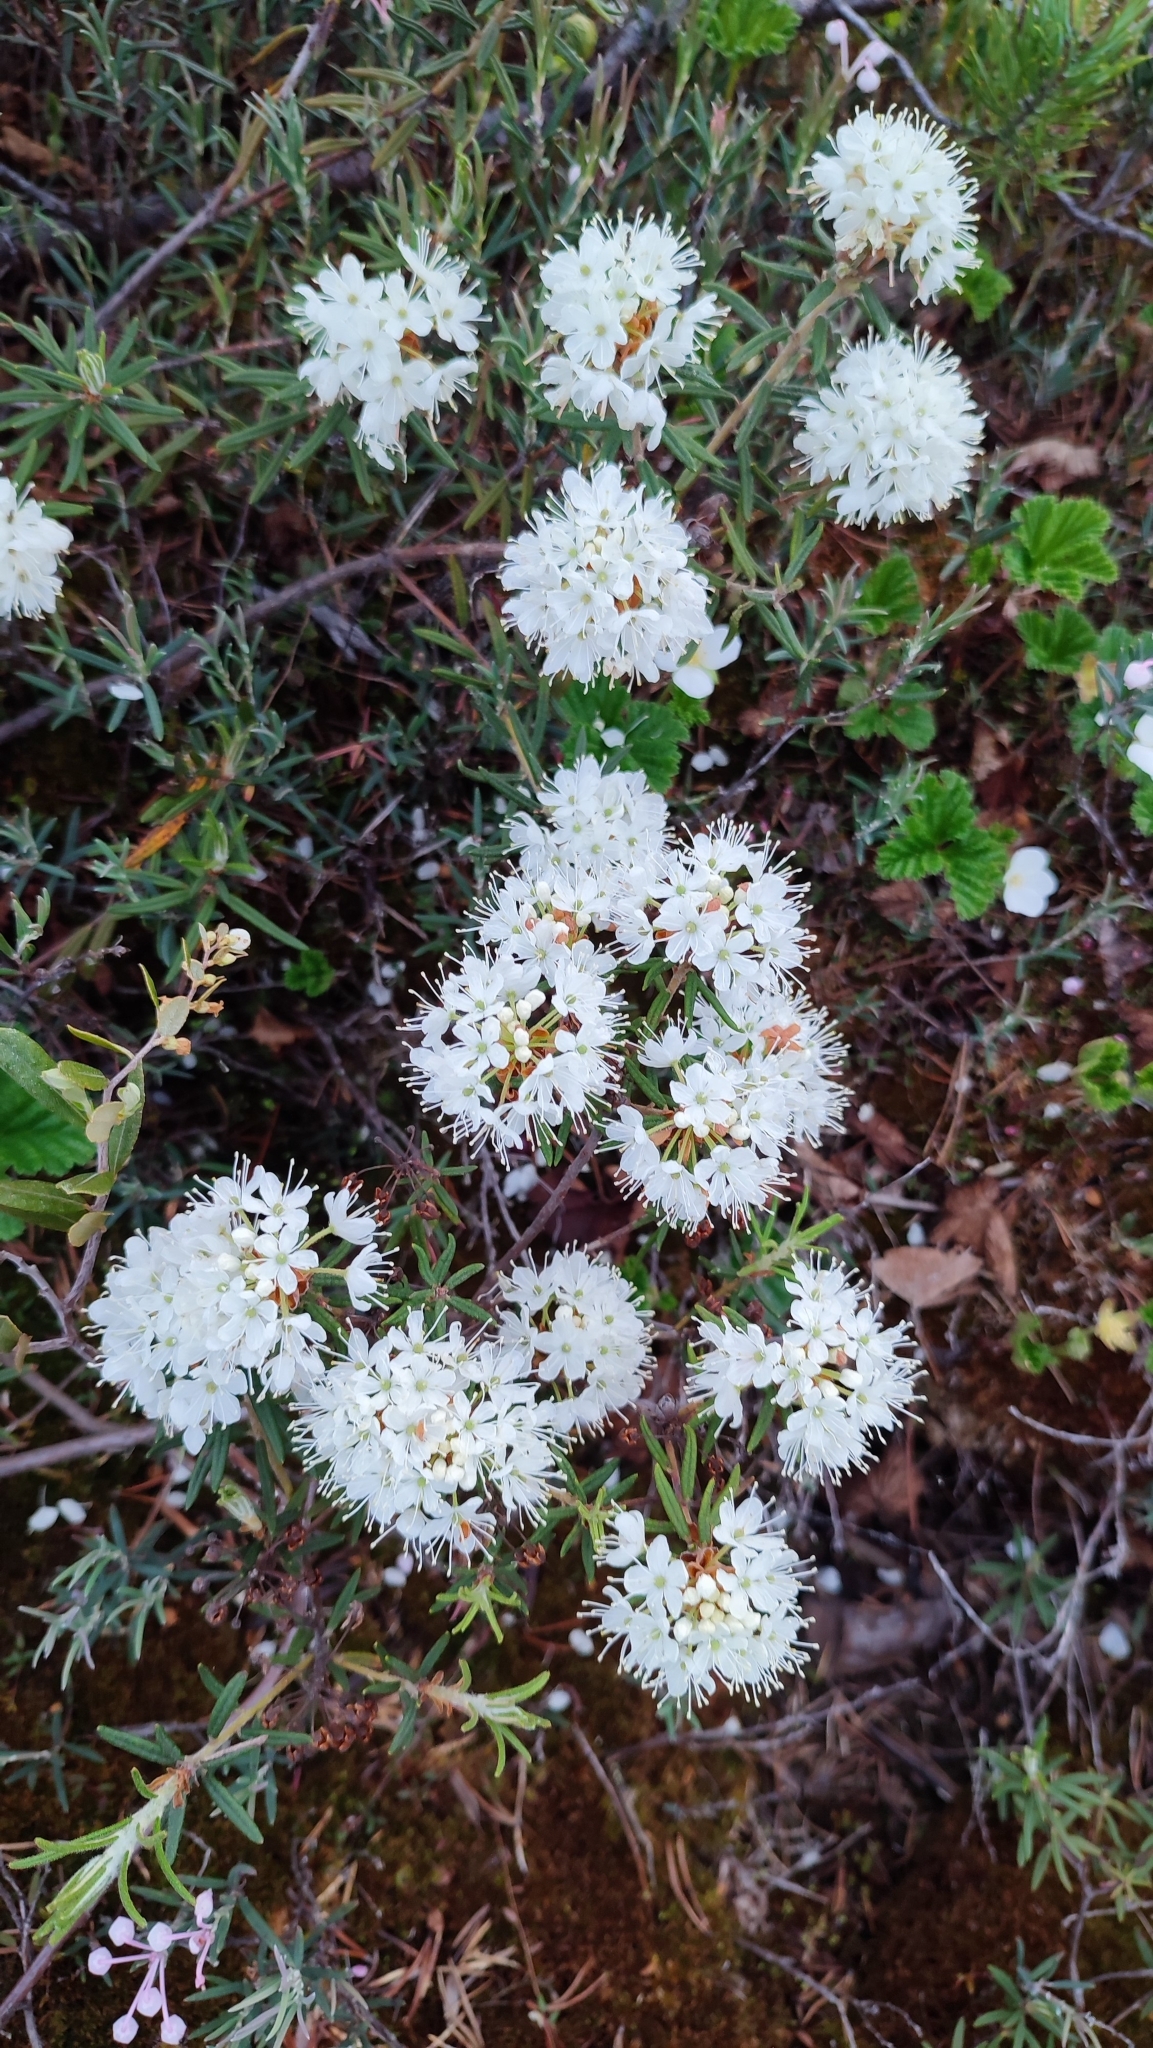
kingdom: Plantae
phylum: Tracheophyta
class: Magnoliopsida
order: Ericales
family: Ericaceae
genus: Rhododendron
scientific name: Rhododendron tomentosum
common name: Marsh labrador tea
